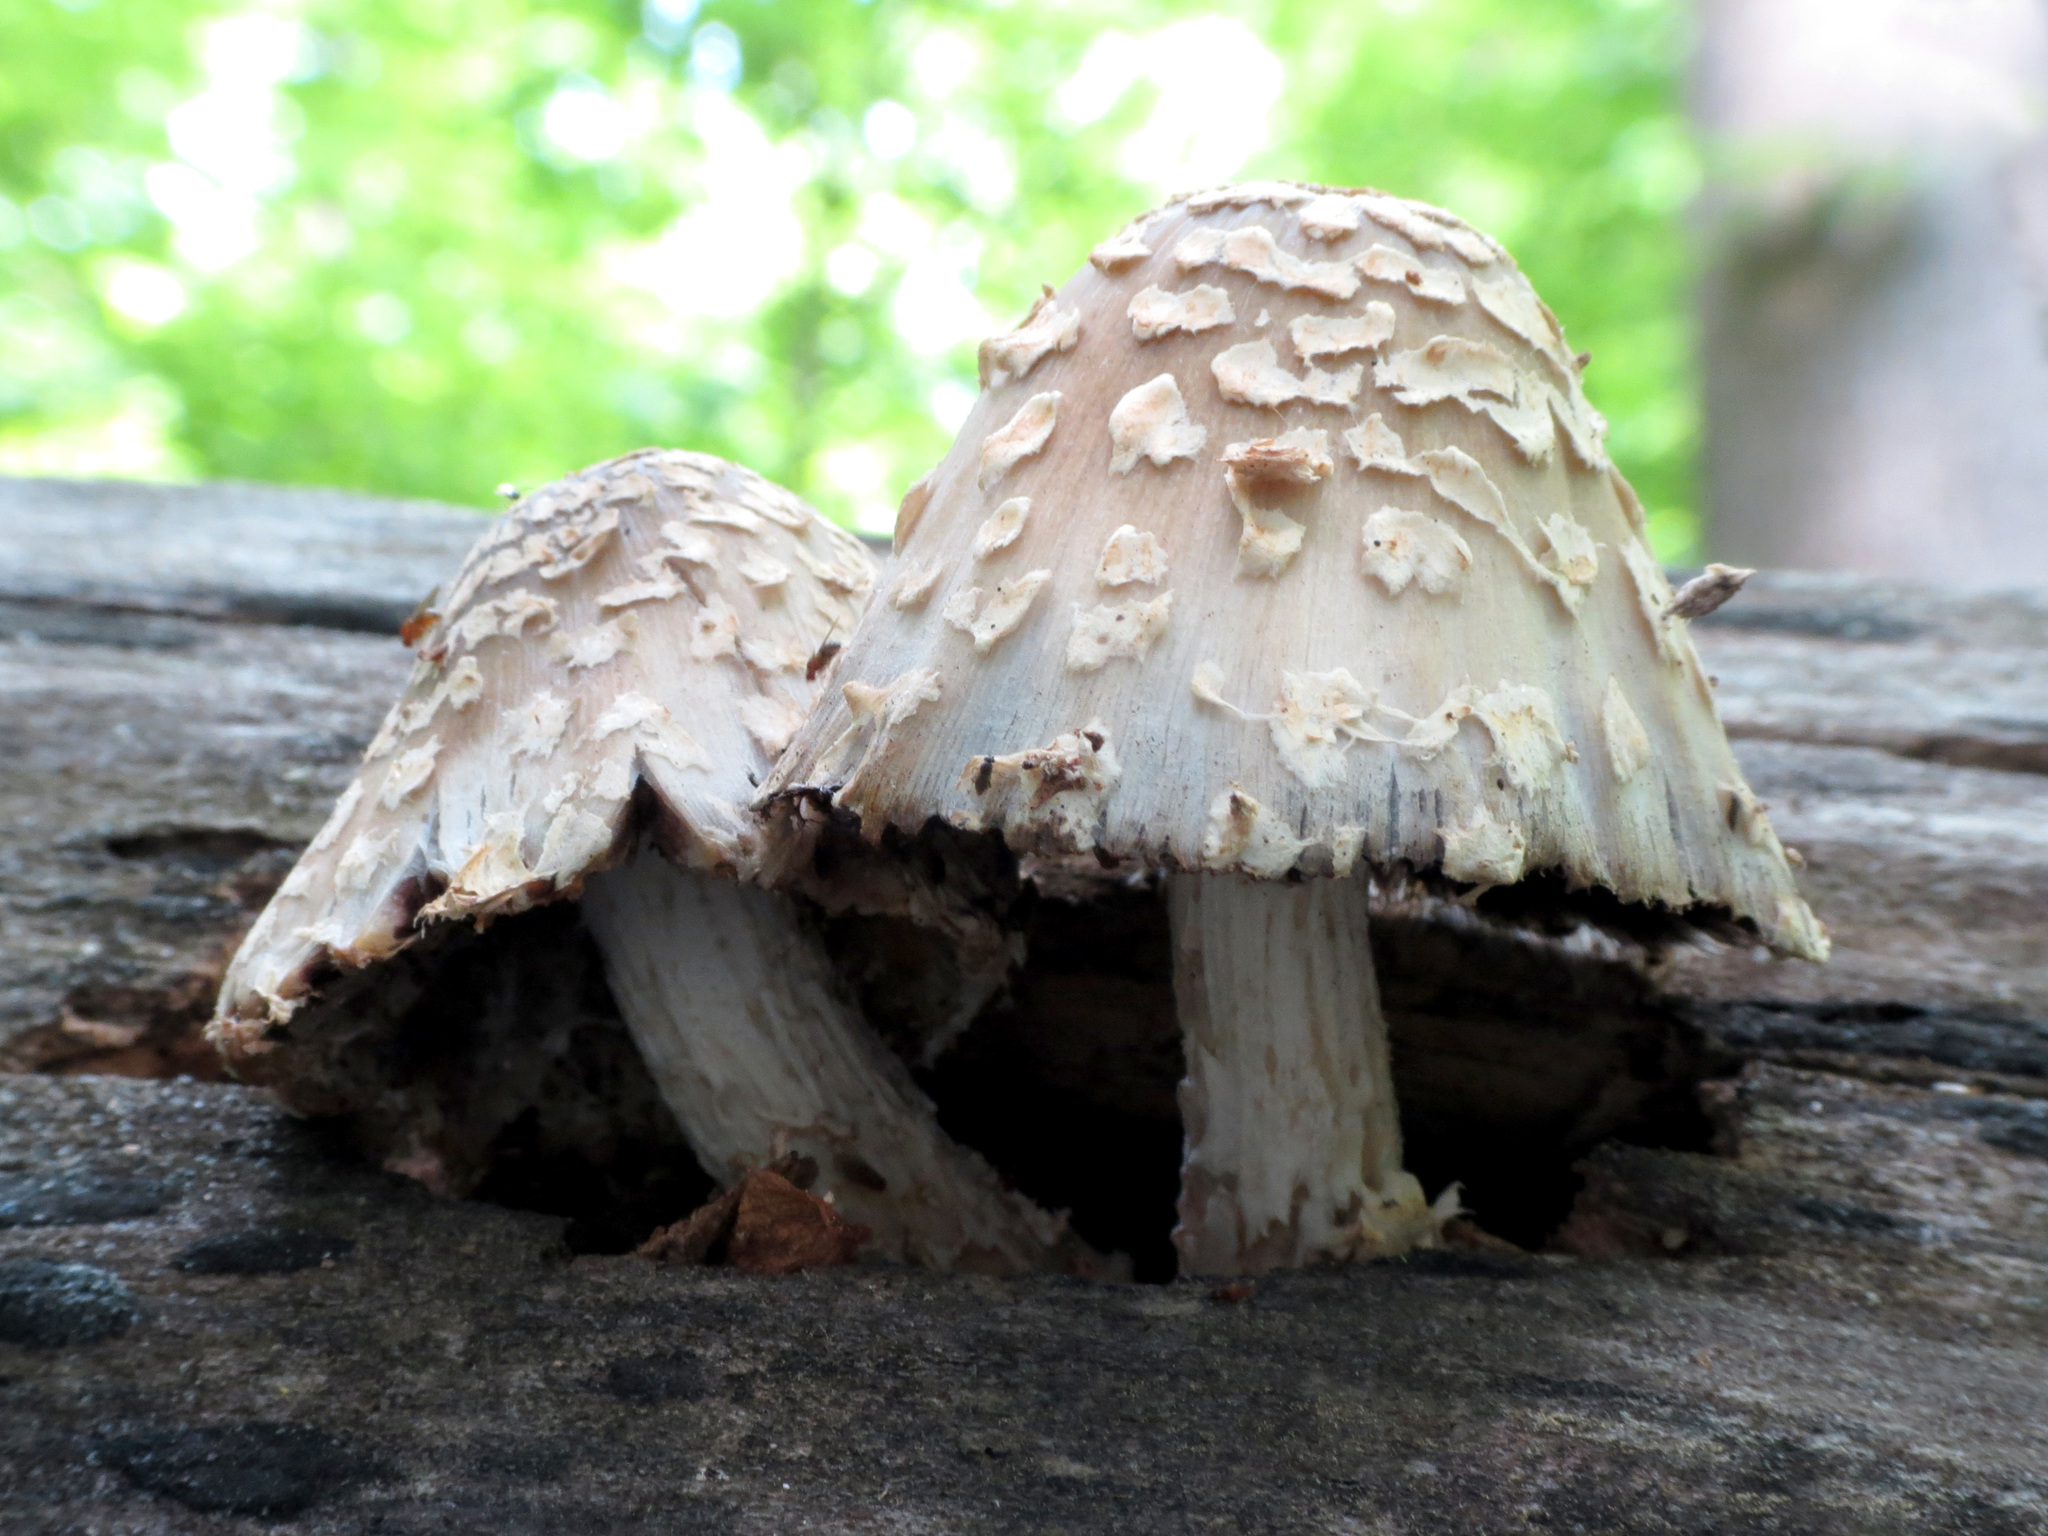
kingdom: Fungi
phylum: Basidiomycota
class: Agaricomycetes
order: Agaricales
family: Psathyrellaceae
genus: Coprinopsis
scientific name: Coprinopsis variegata
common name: Scaly ink cap
